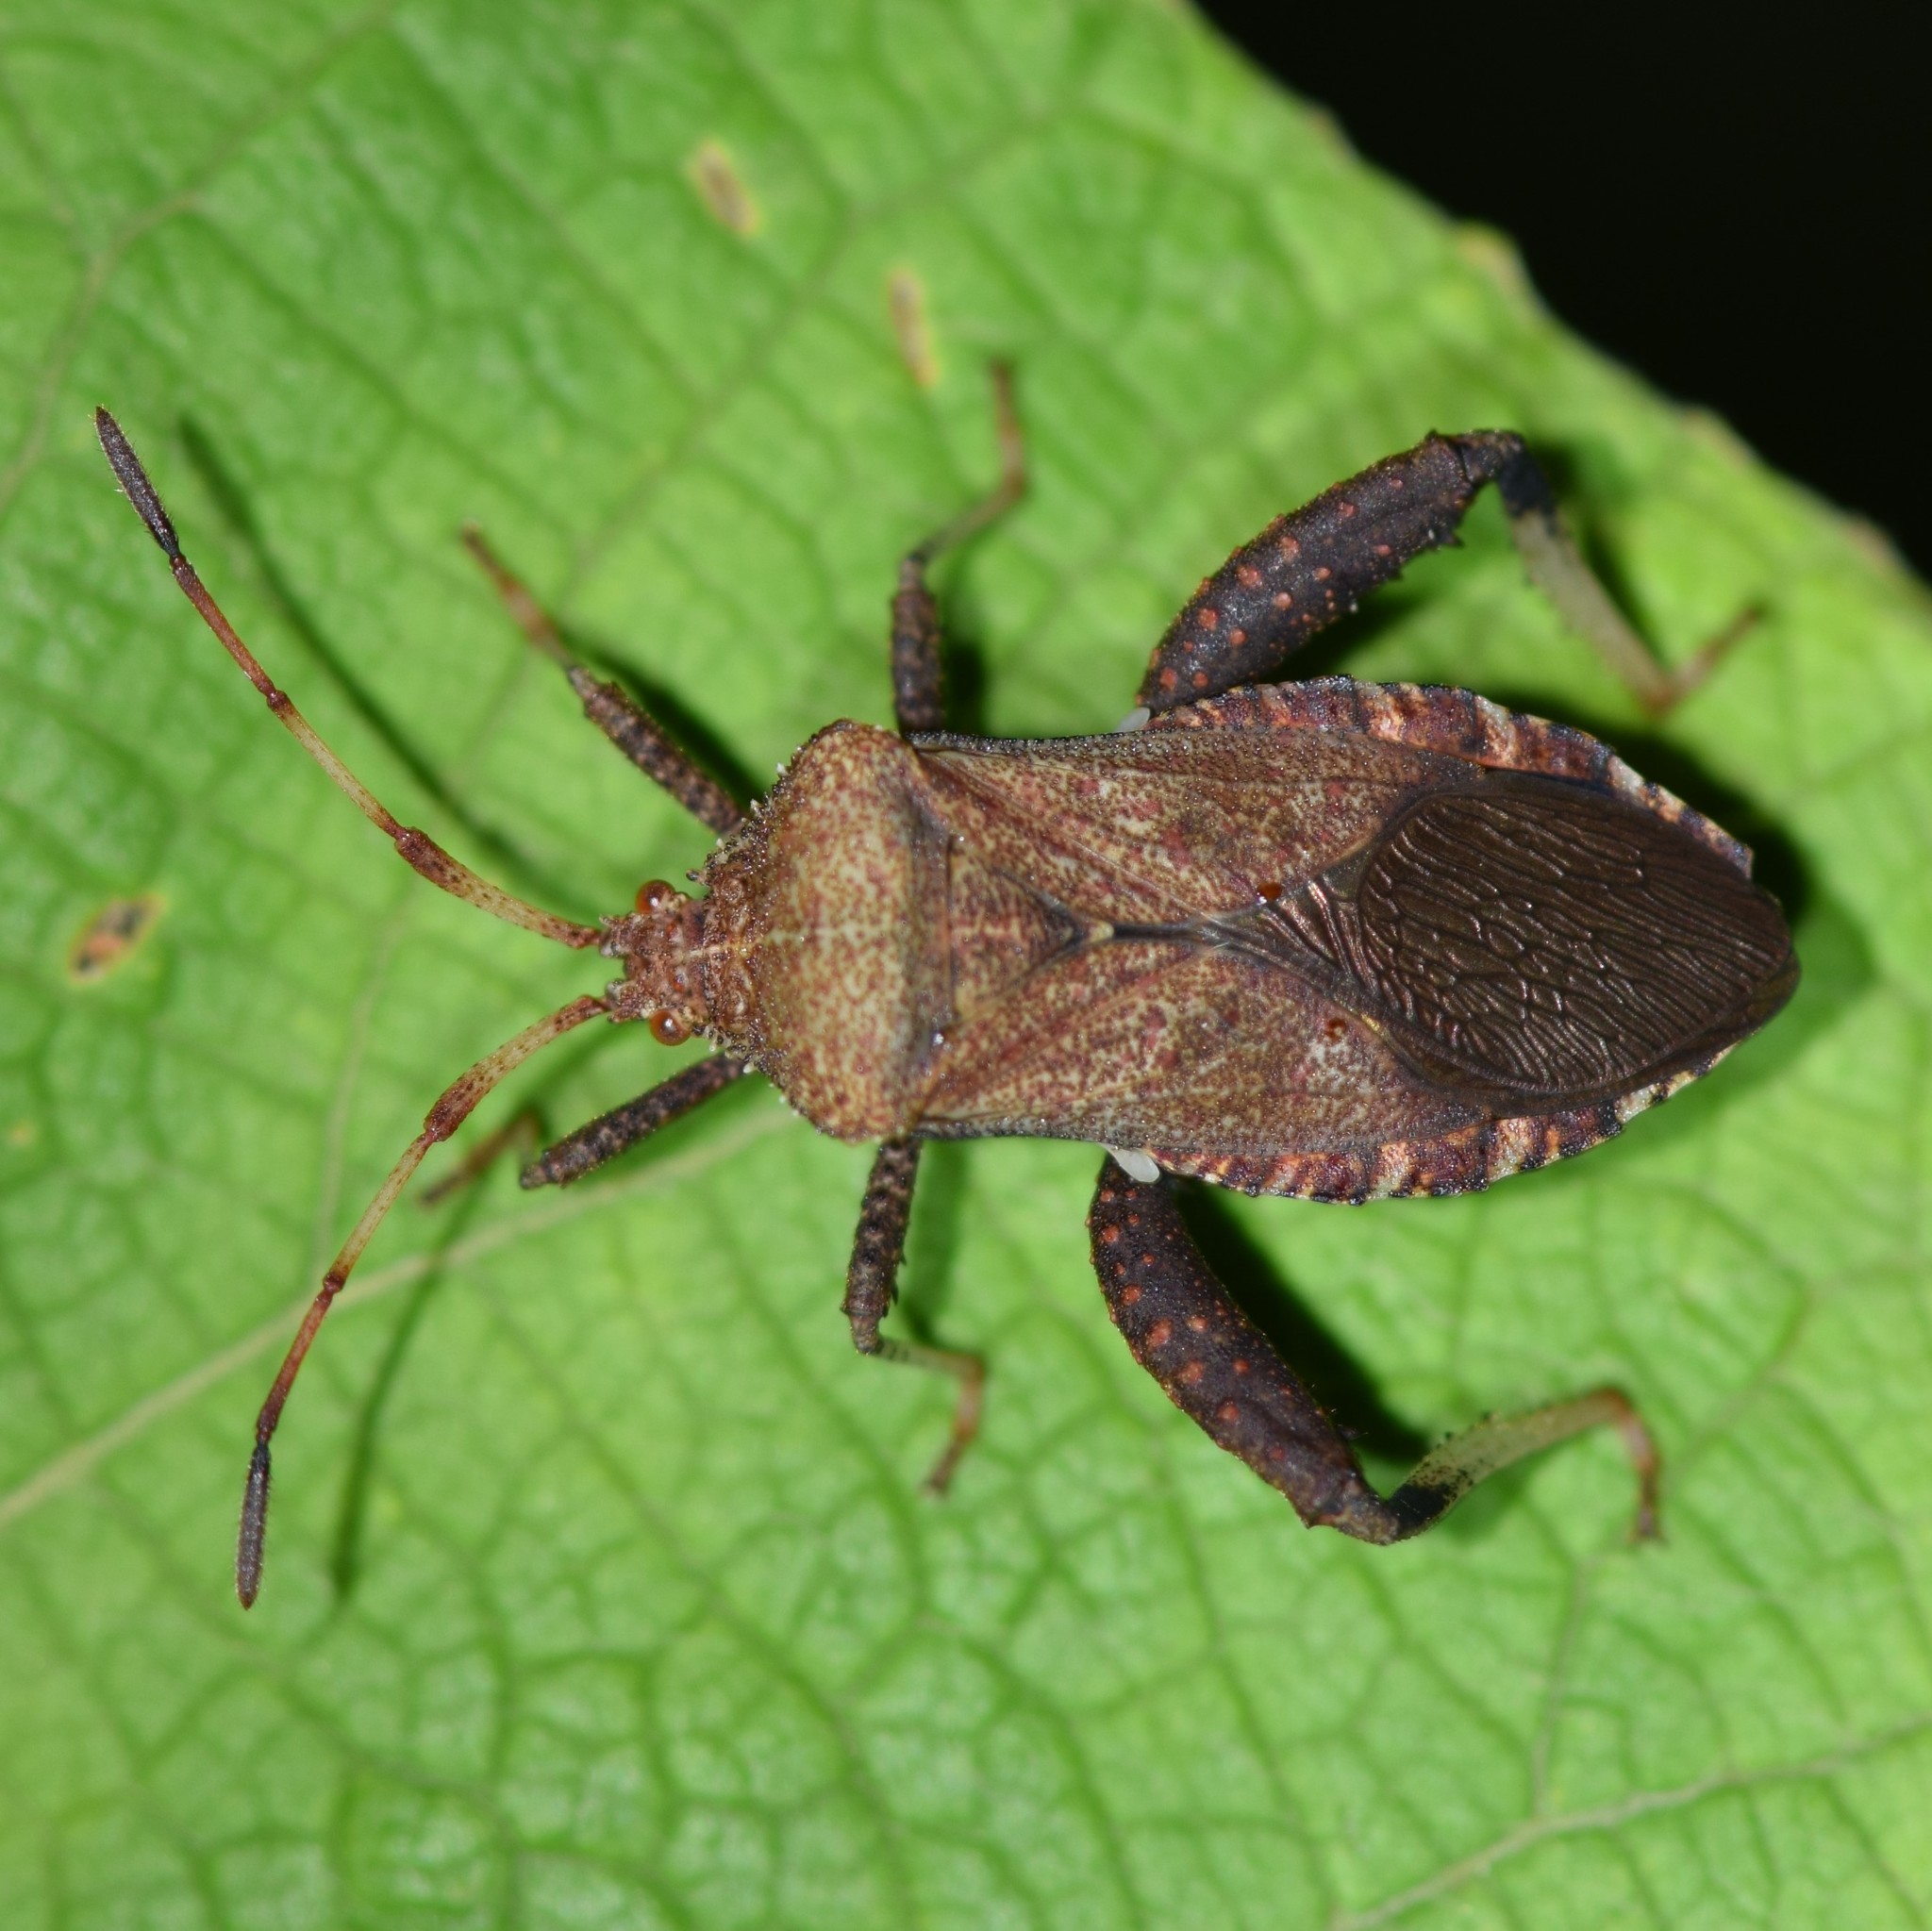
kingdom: Animalia
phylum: Arthropoda
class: Insecta
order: Hemiptera
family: Coreidae
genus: Euthochtha
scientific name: Euthochtha galeator
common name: Helmeted squash bug
